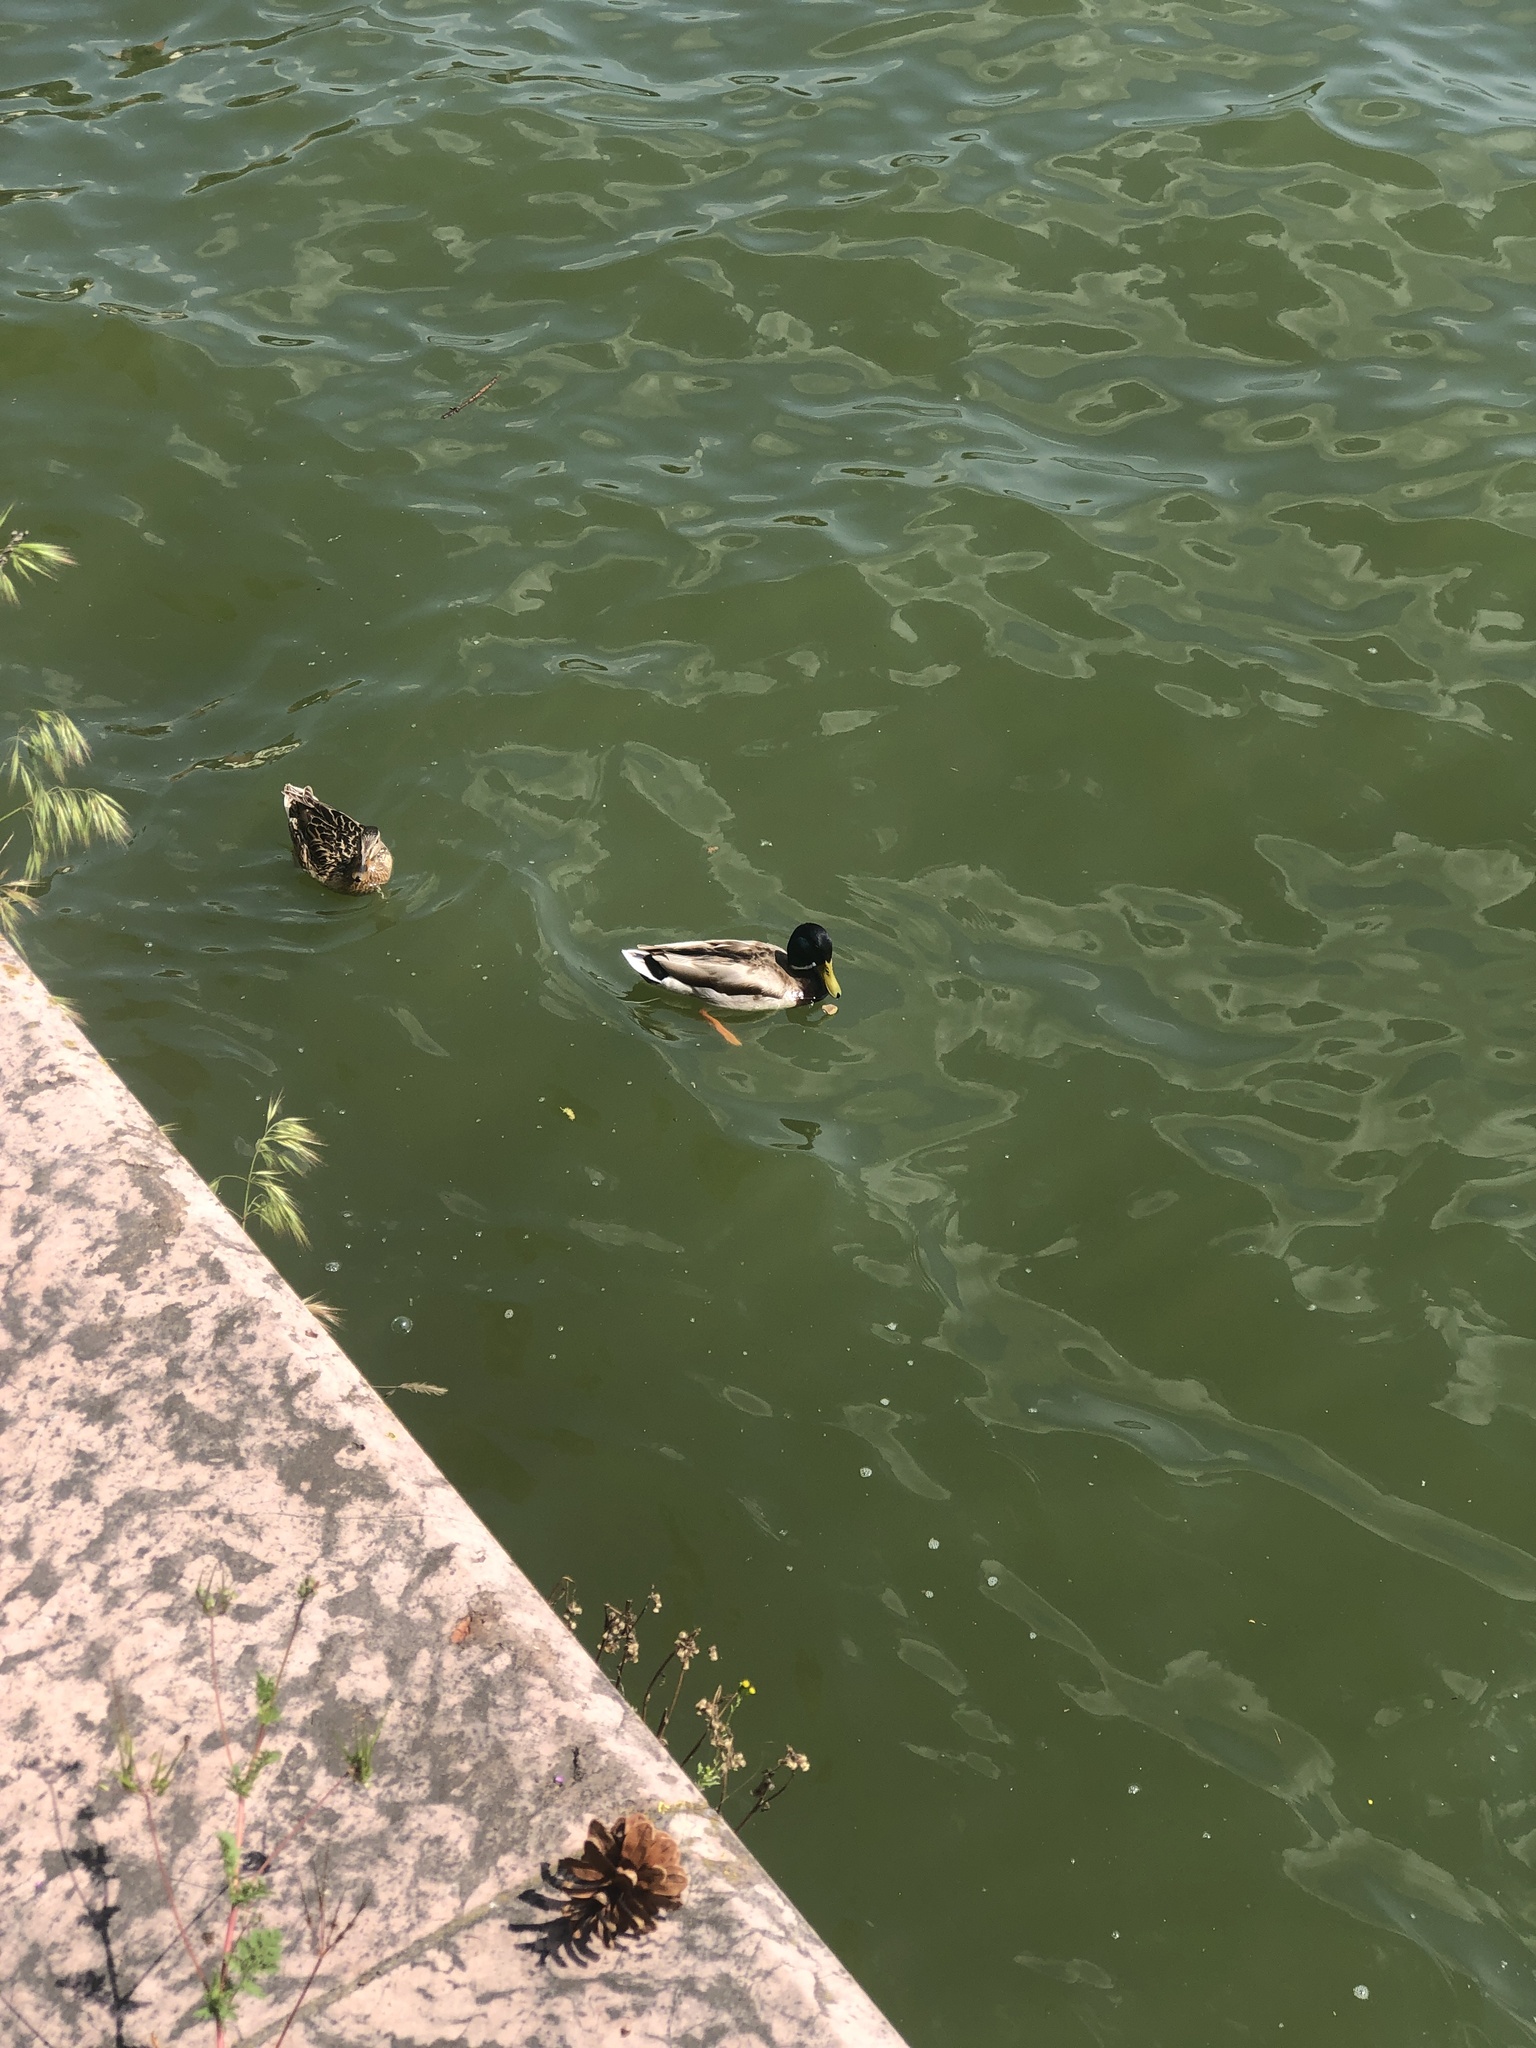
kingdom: Animalia
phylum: Chordata
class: Aves
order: Anseriformes
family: Anatidae
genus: Anas
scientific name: Anas platyrhynchos
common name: Mallard
